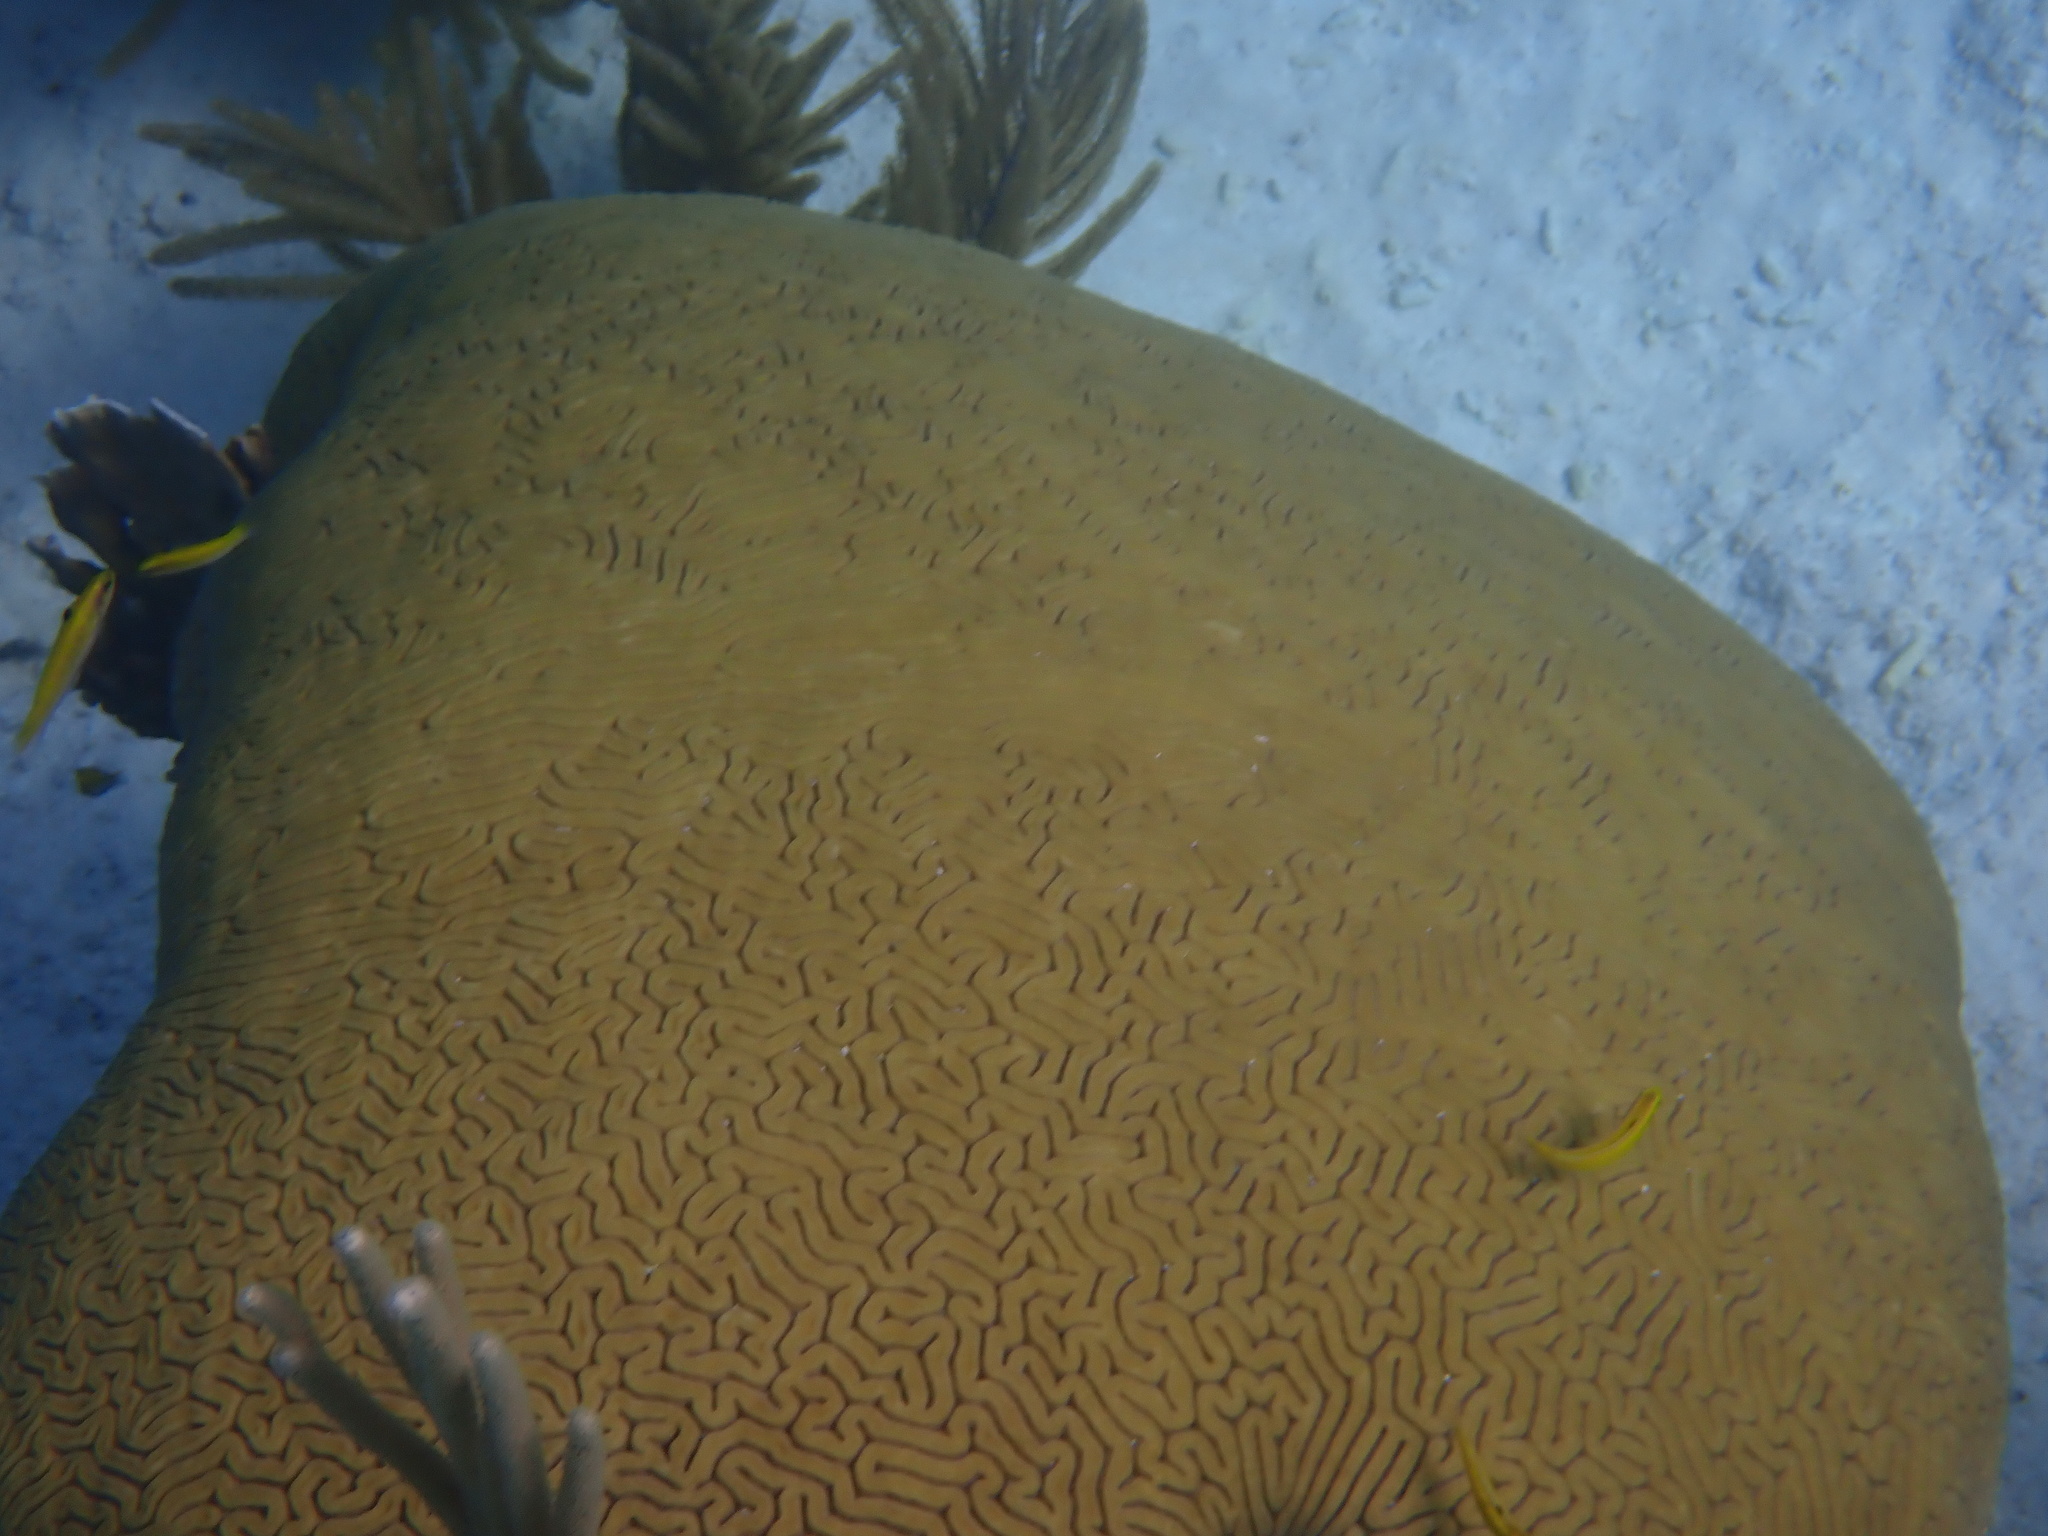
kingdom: Animalia
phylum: Cnidaria
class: Anthozoa
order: Scleractinia
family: Faviidae
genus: Pseudodiploria
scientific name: Pseudodiploria strigosa
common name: Symmetrical brain coral
